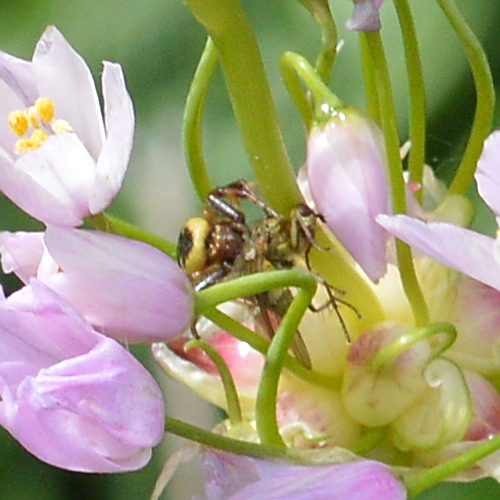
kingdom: Animalia
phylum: Arthropoda
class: Arachnida
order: Araneae
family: Thomisidae
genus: Synema
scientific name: Synema globosum
